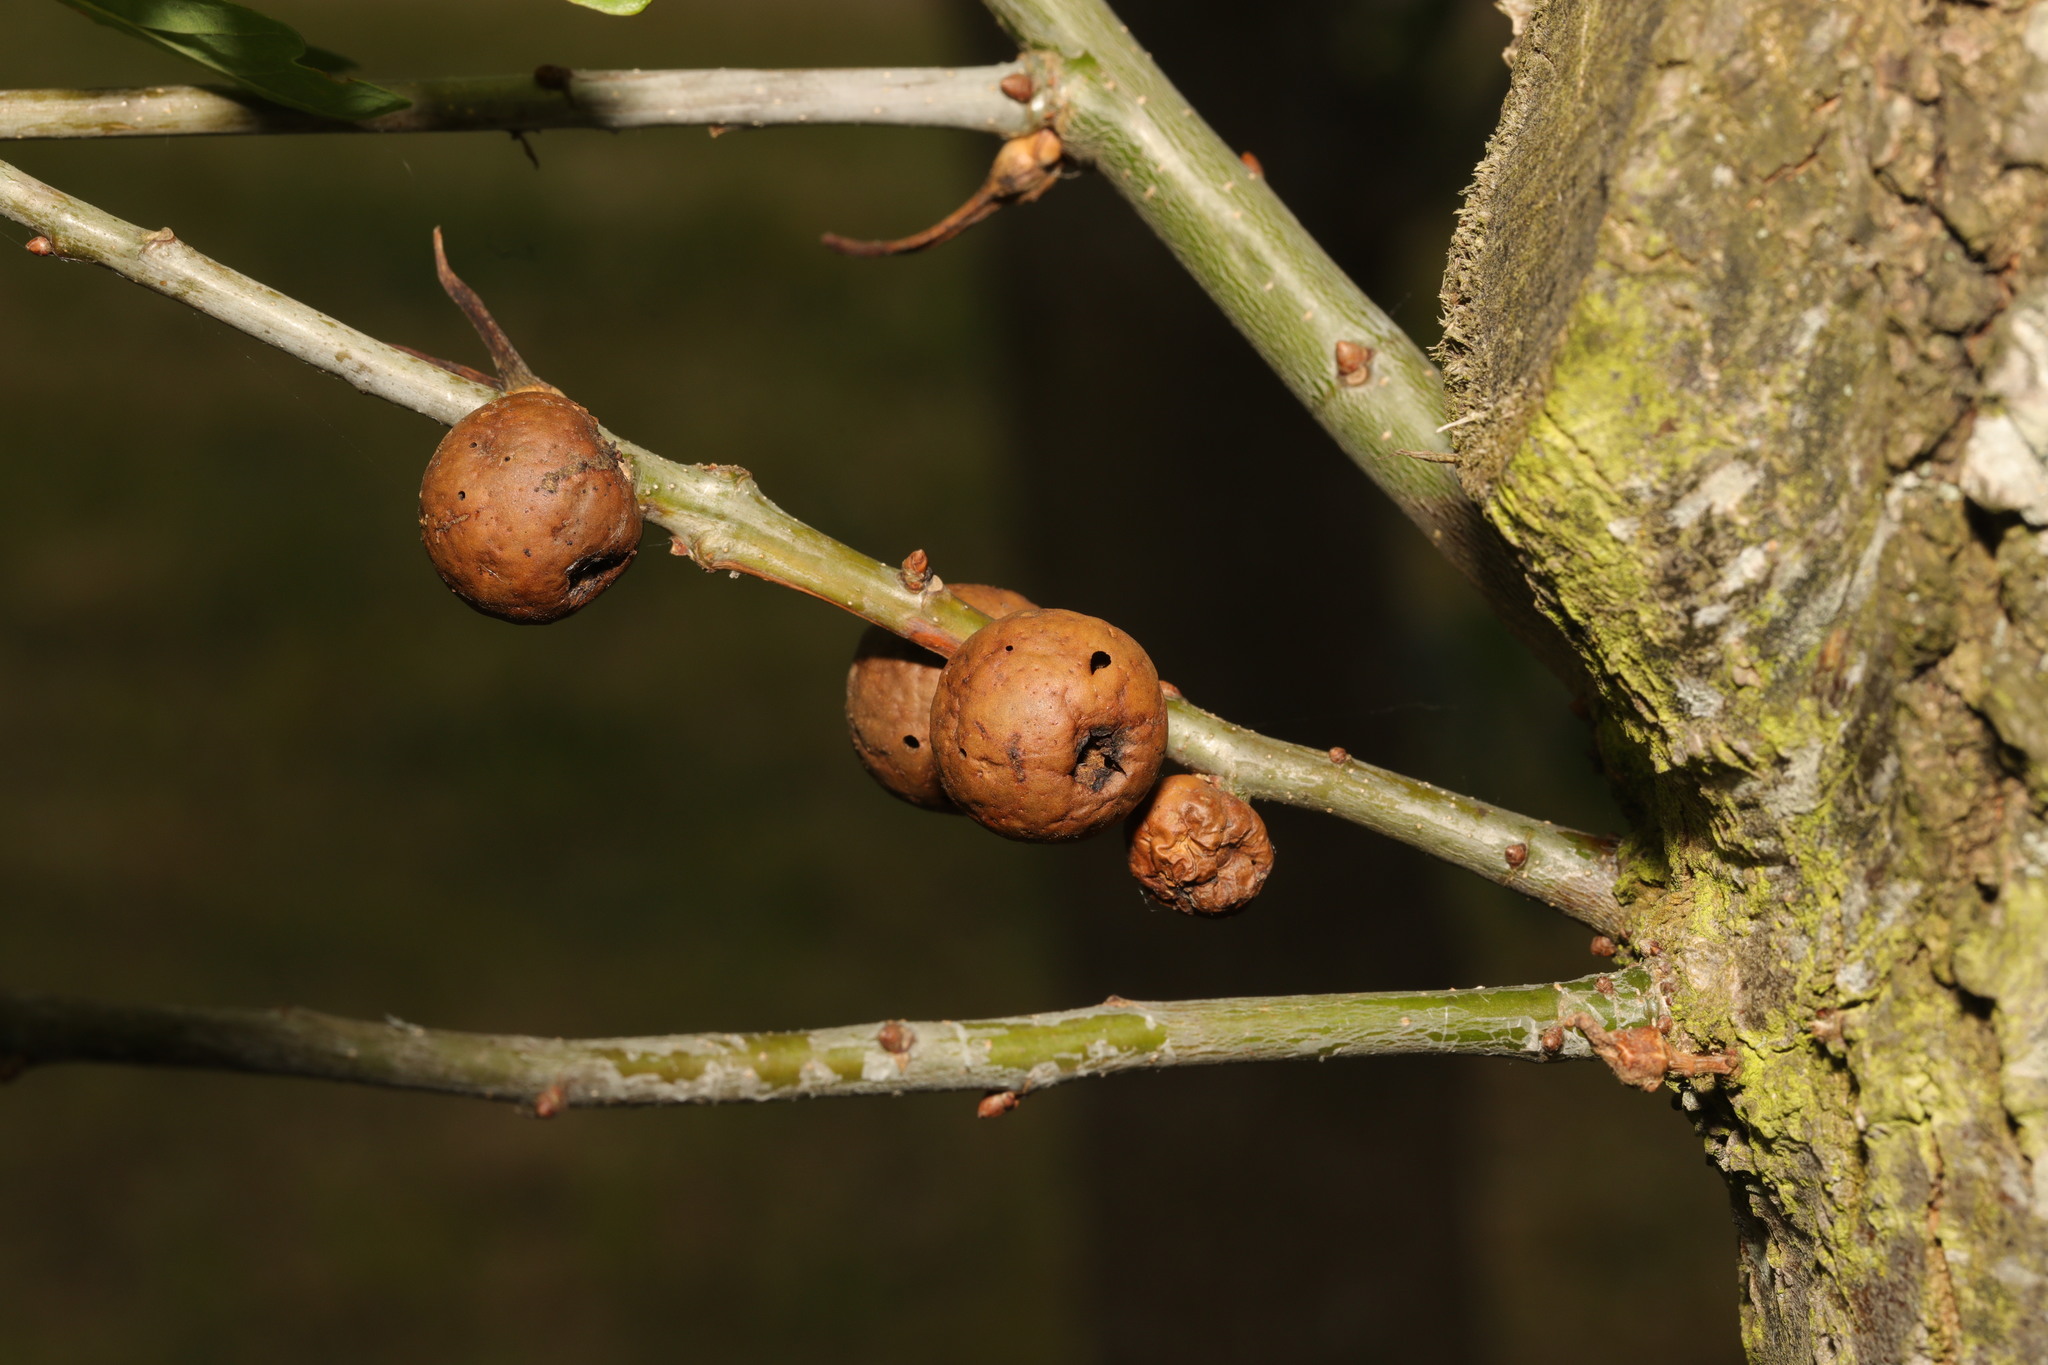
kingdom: Animalia
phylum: Arthropoda
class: Insecta
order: Hymenoptera
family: Cynipidae
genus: Biorhiza
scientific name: Biorhiza pallida
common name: Oak apple
